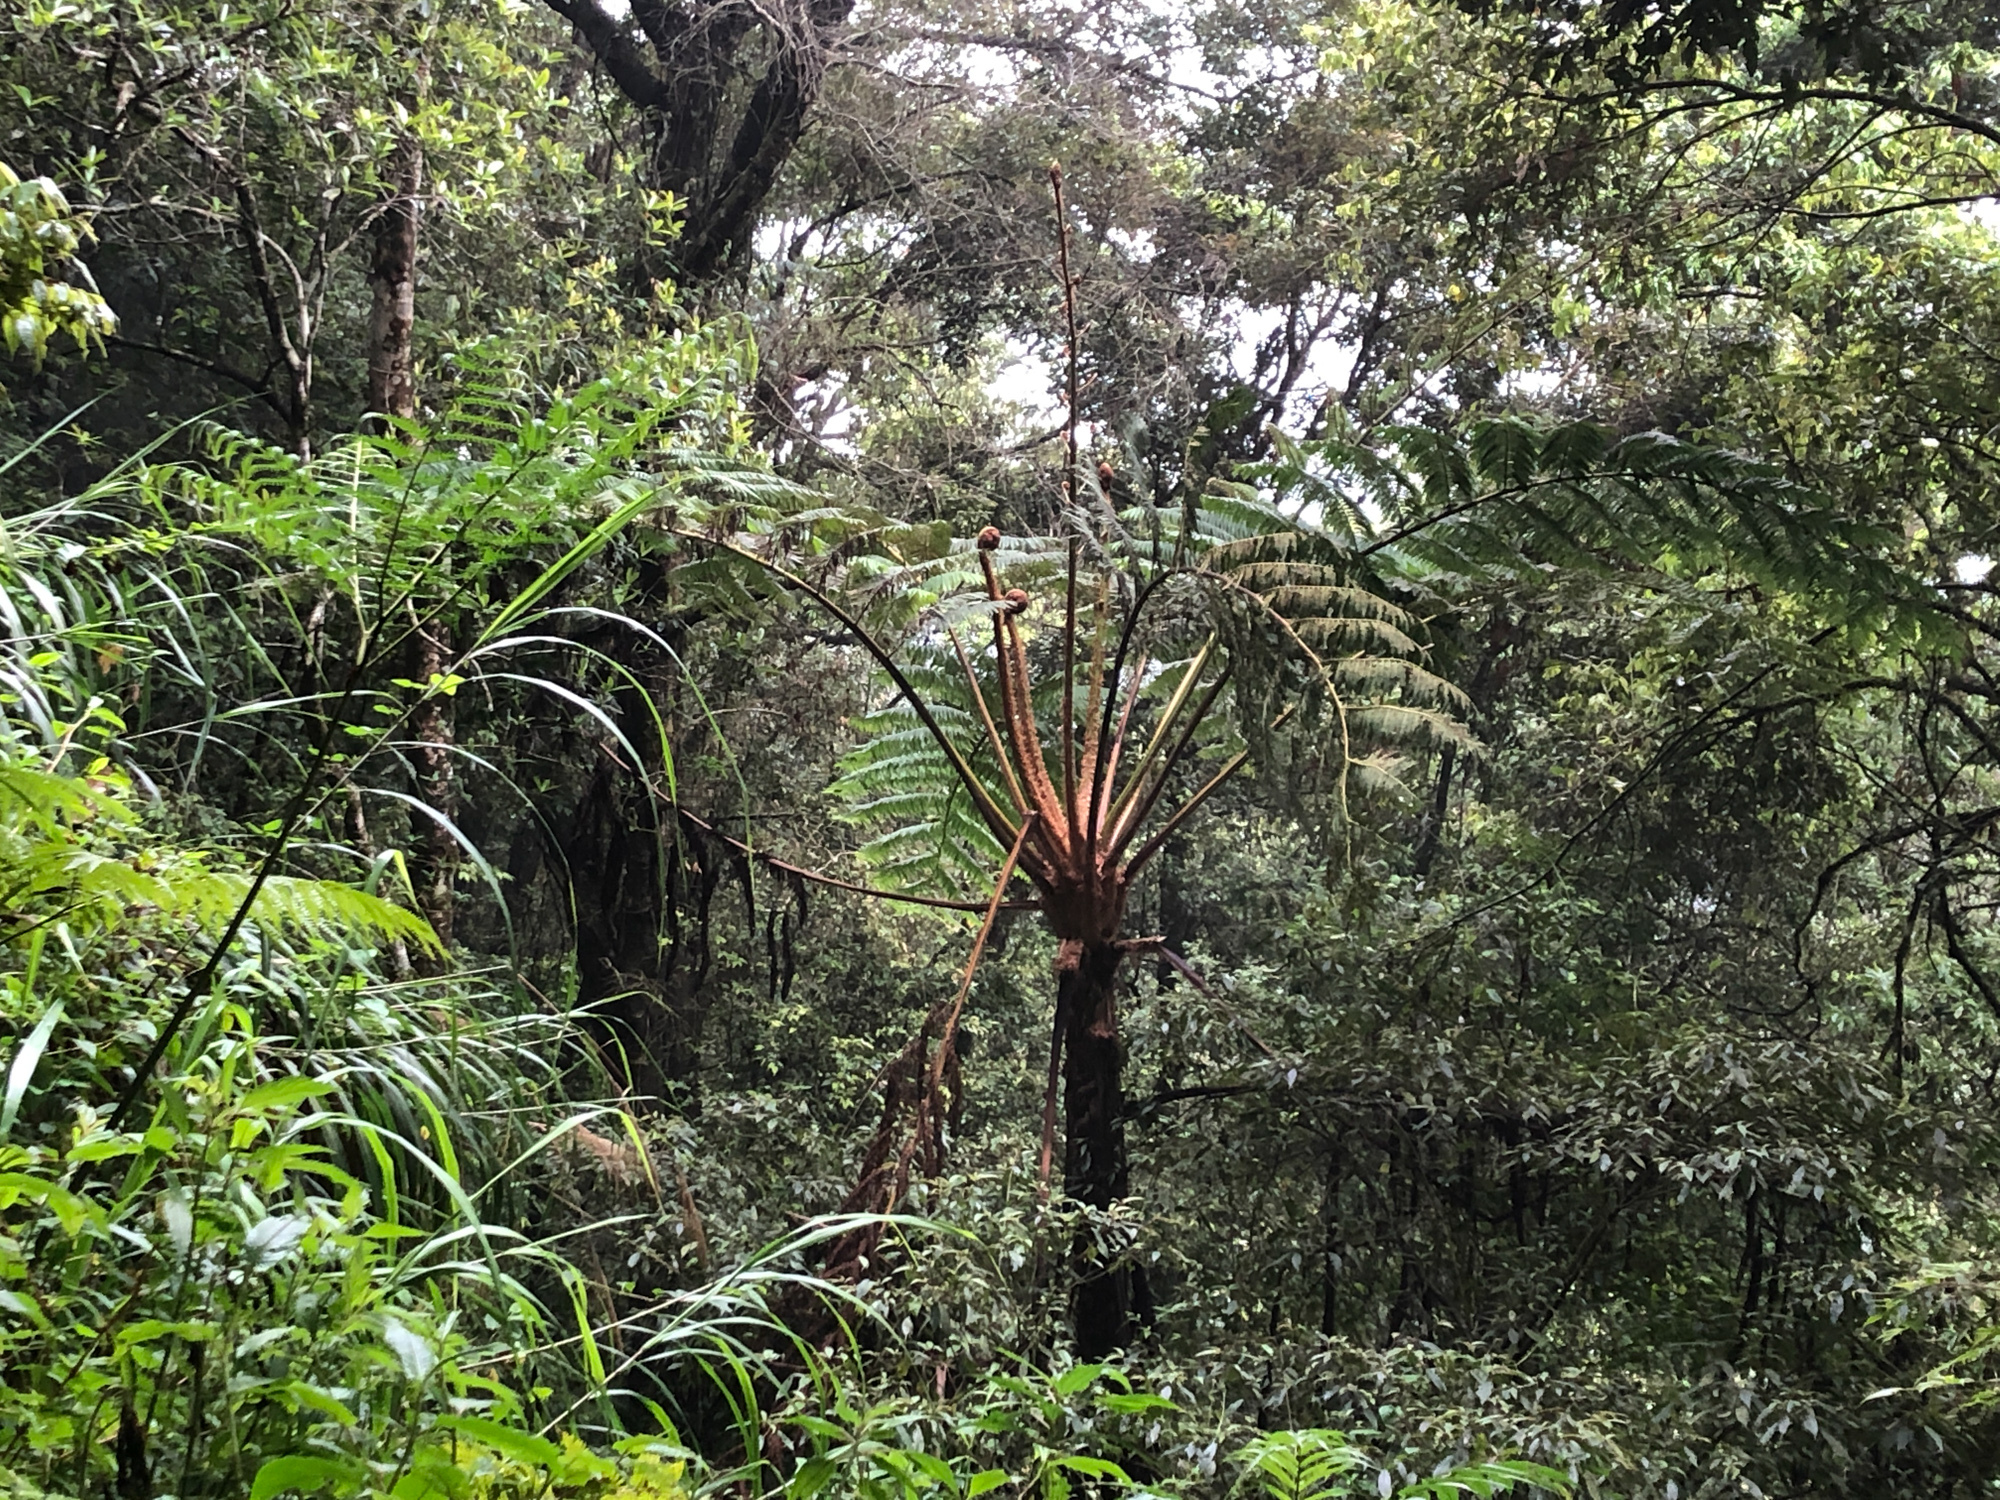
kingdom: Plantae
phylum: Tracheophyta
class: Polypodiopsida
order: Cyatheales
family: Cyatheaceae
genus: Alsophila
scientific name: Alsophila lepifera
